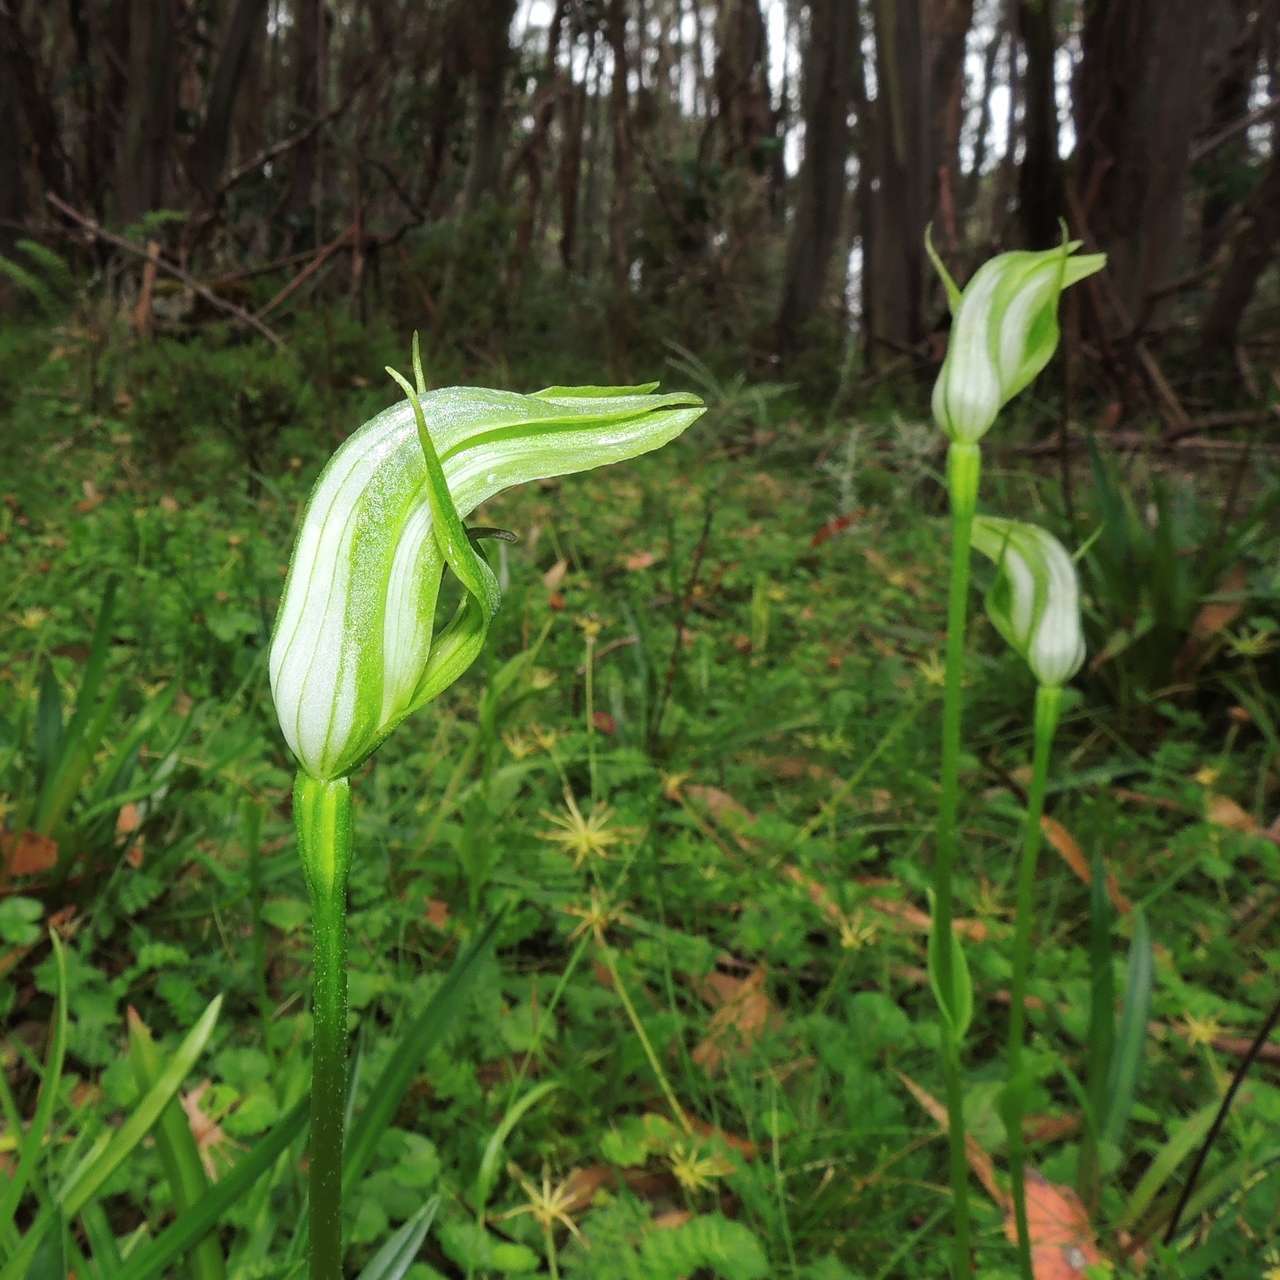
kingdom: Plantae
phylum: Tracheophyta
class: Liliopsida
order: Asparagales
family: Orchidaceae
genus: Pterostylis
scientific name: Pterostylis monticola
